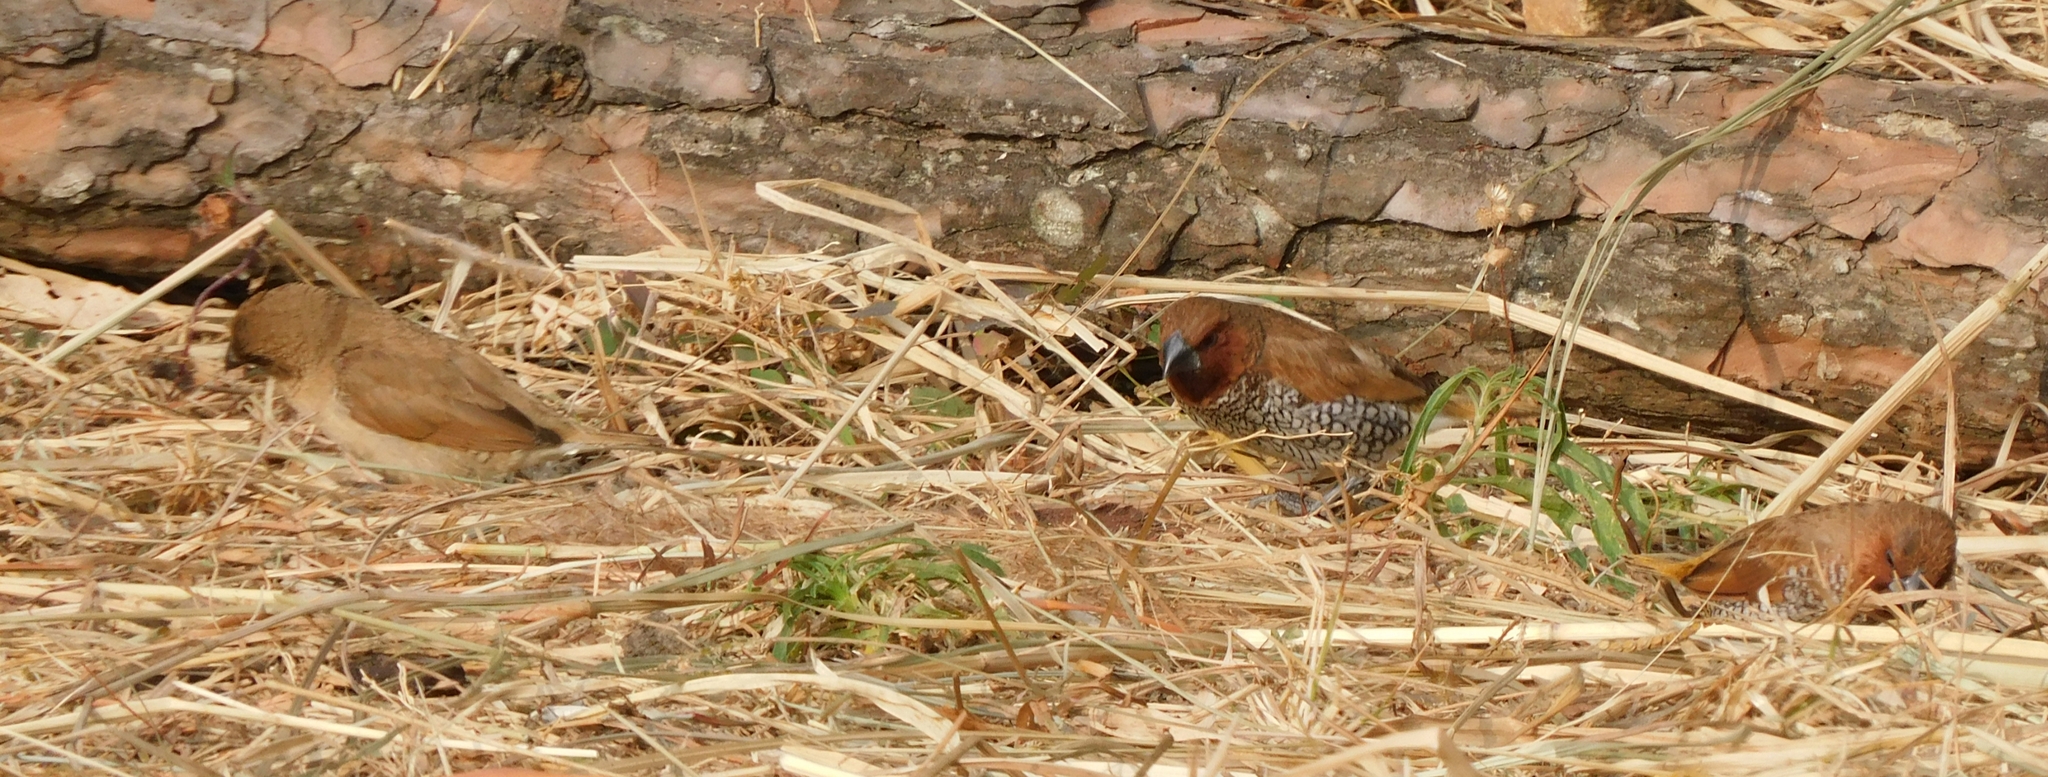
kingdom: Animalia
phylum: Chordata
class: Aves
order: Passeriformes
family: Estrildidae
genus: Lonchura
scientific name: Lonchura punctulata
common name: Scaly-breasted munia
